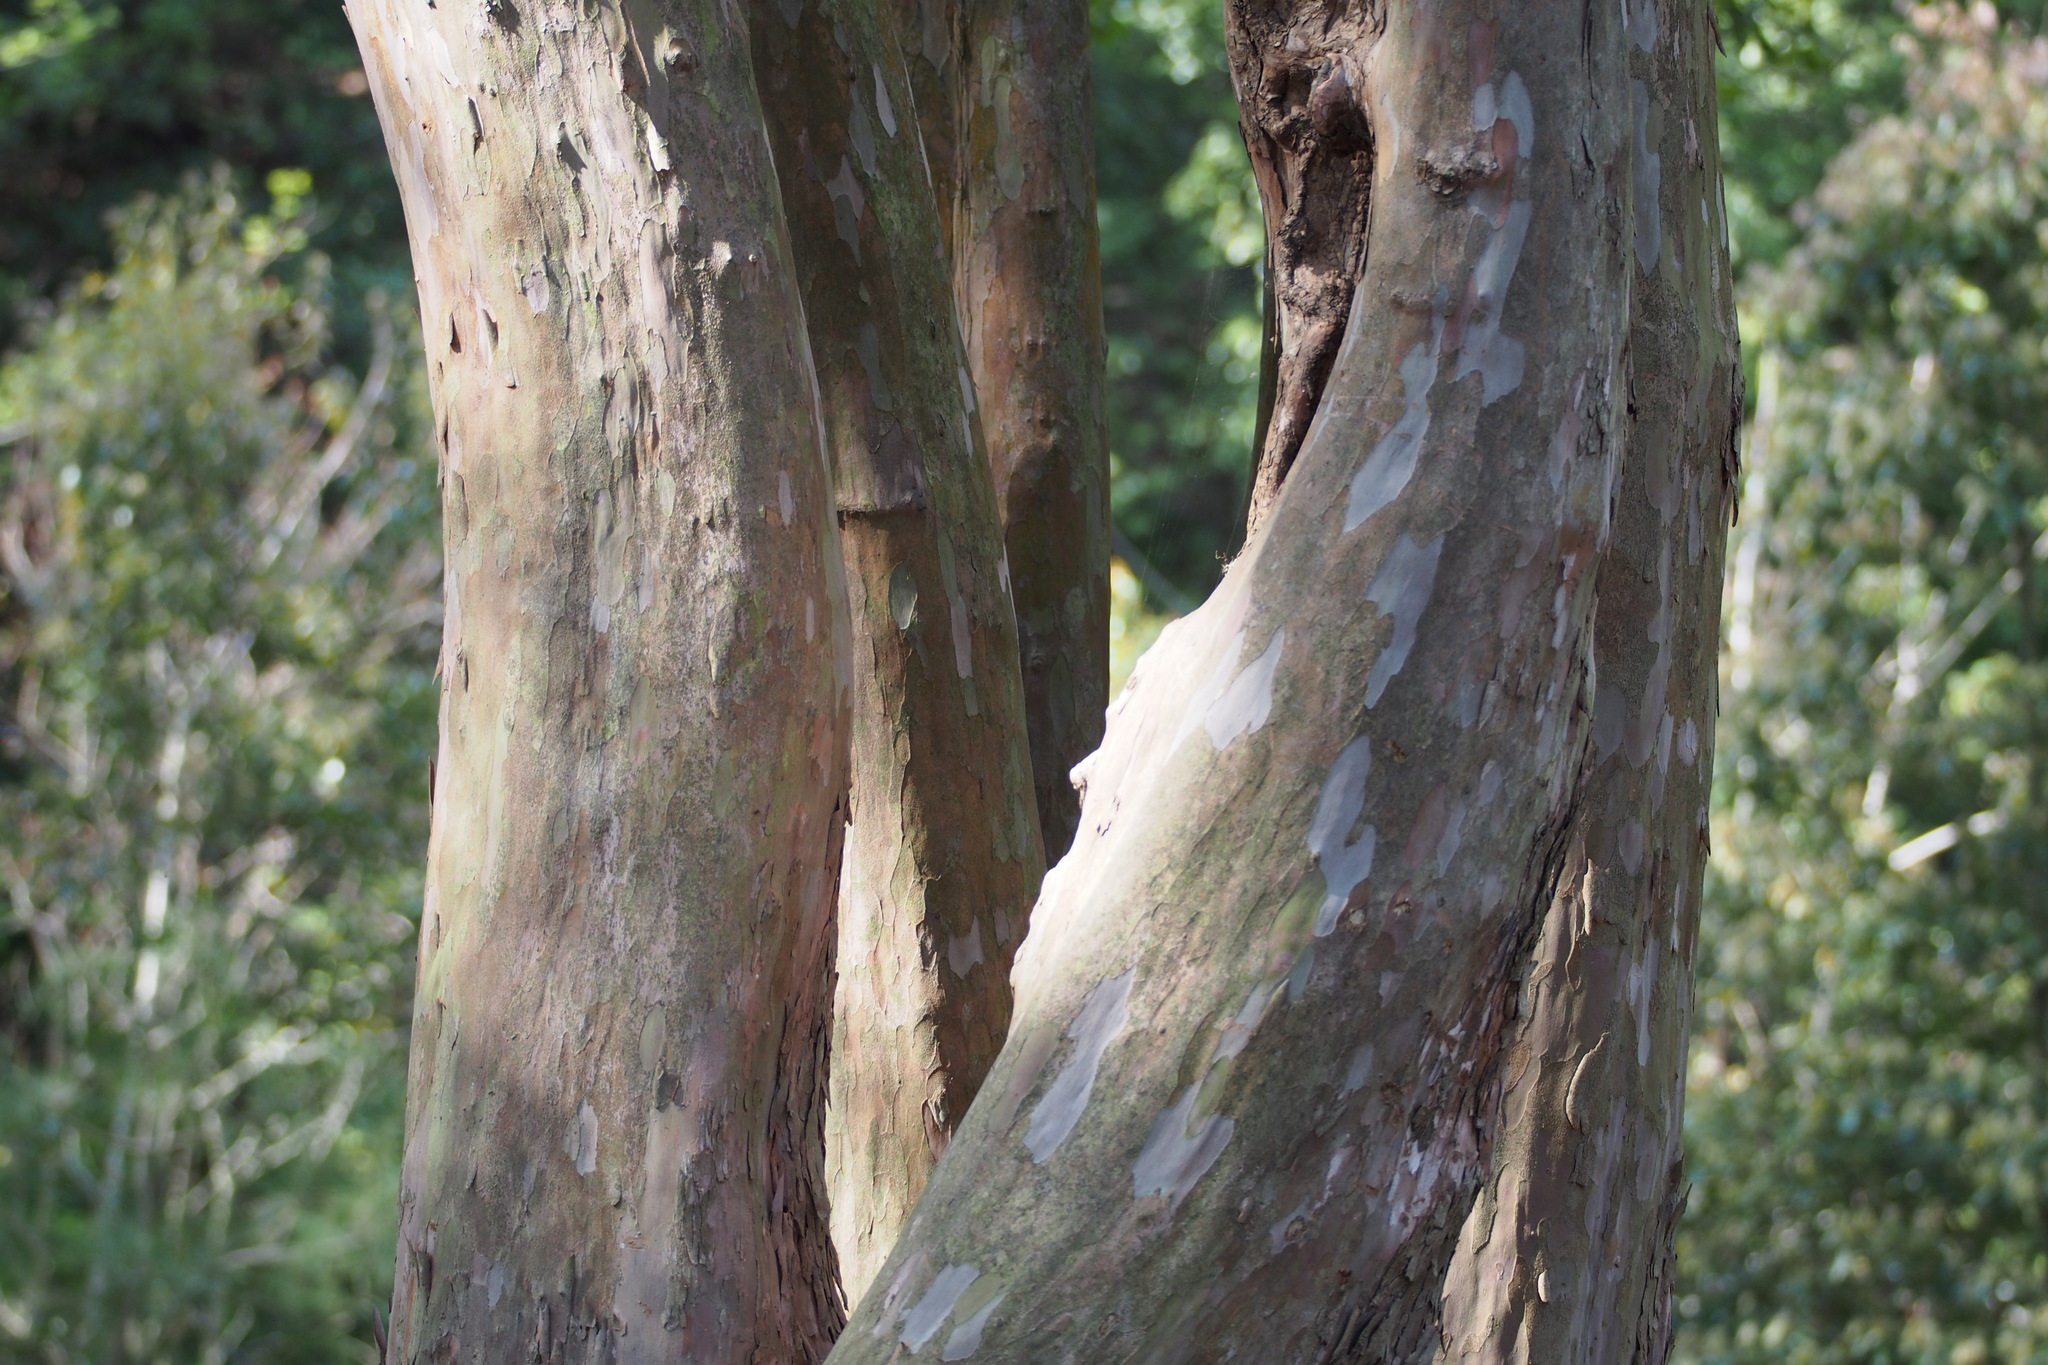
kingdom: Plantae
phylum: Tracheophyta
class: Magnoliopsida
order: Ericales
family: Clethraceae
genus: Clethra
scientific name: Clethra barbinervis
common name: Japanese clethra
